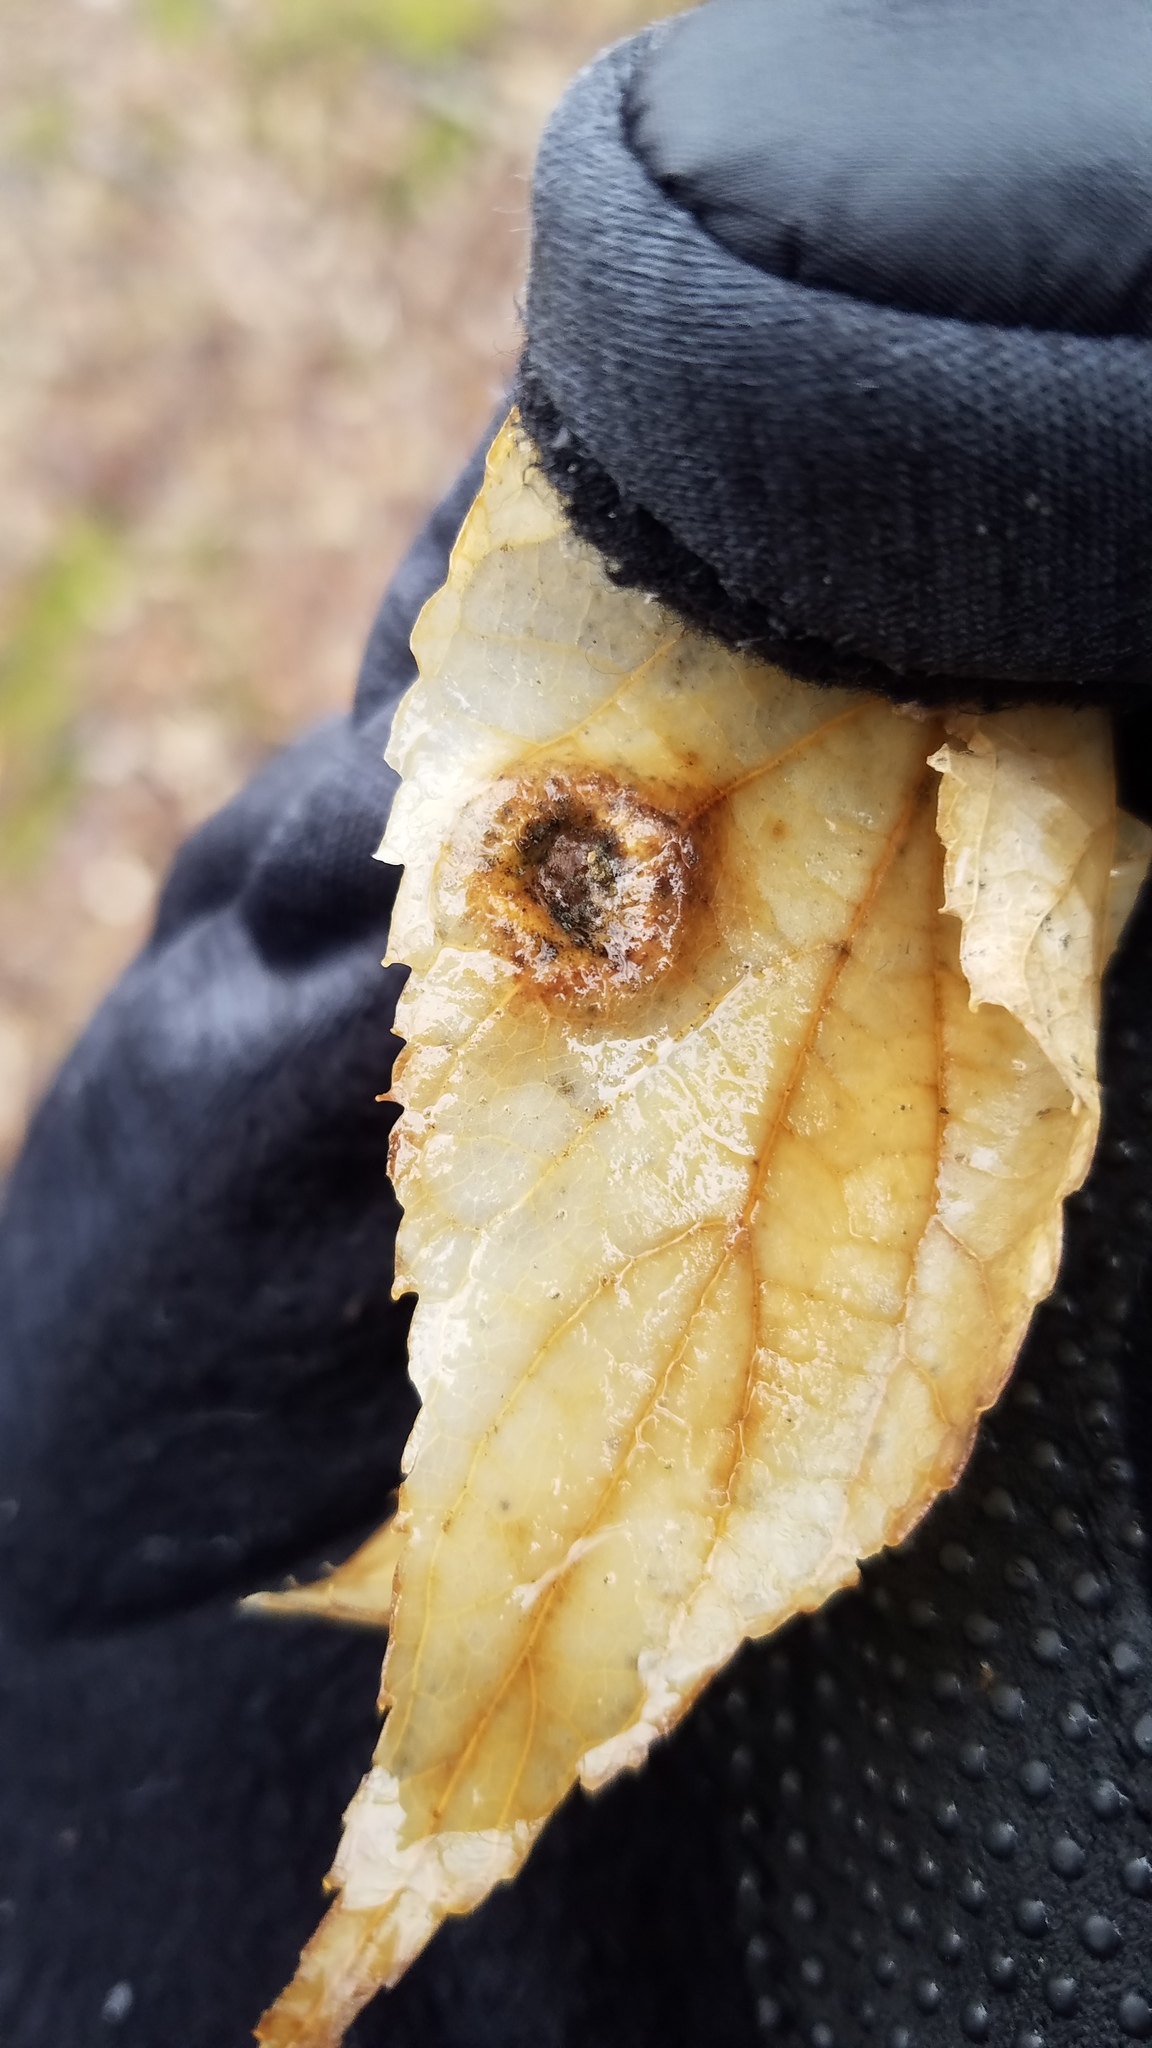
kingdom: Animalia
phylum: Arthropoda
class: Insecta
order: Hemiptera
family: Aphalaridae
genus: Pachypsylla
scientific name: Pachypsylla celtidismamma
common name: Hackberry nipplegall psyllid
